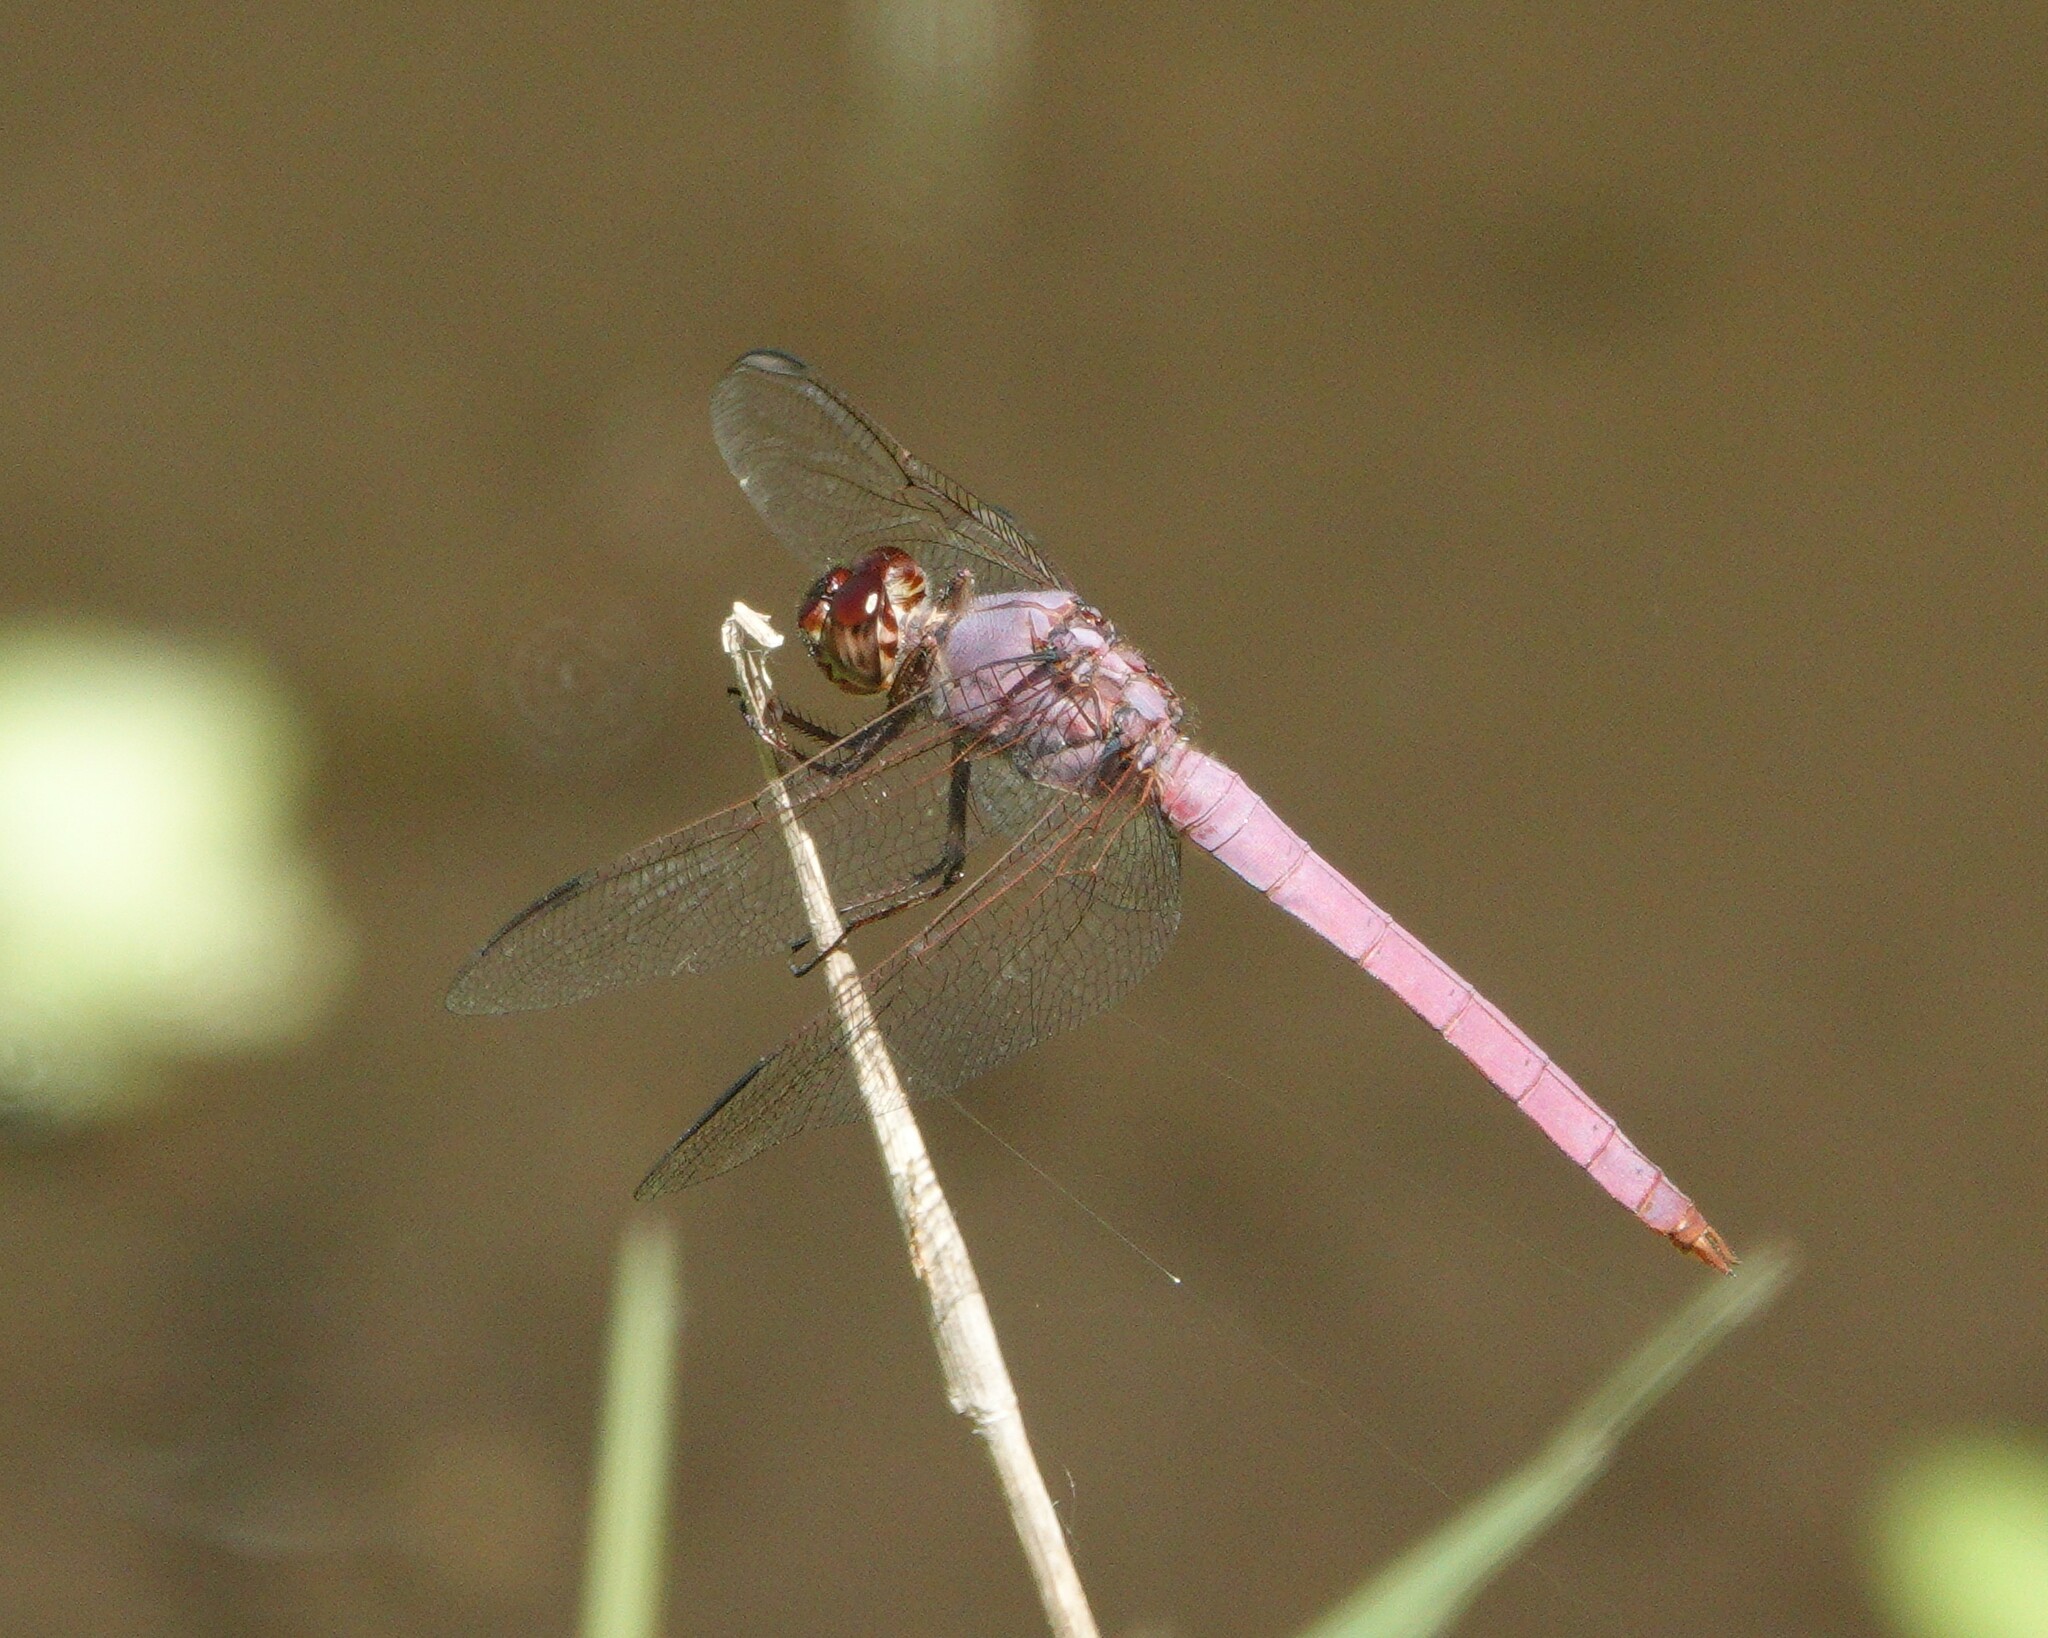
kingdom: Animalia
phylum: Arthropoda
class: Insecta
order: Odonata
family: Libellulidae
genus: Orthemis
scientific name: Orthemis ferruginea
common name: Roseate skimmer
